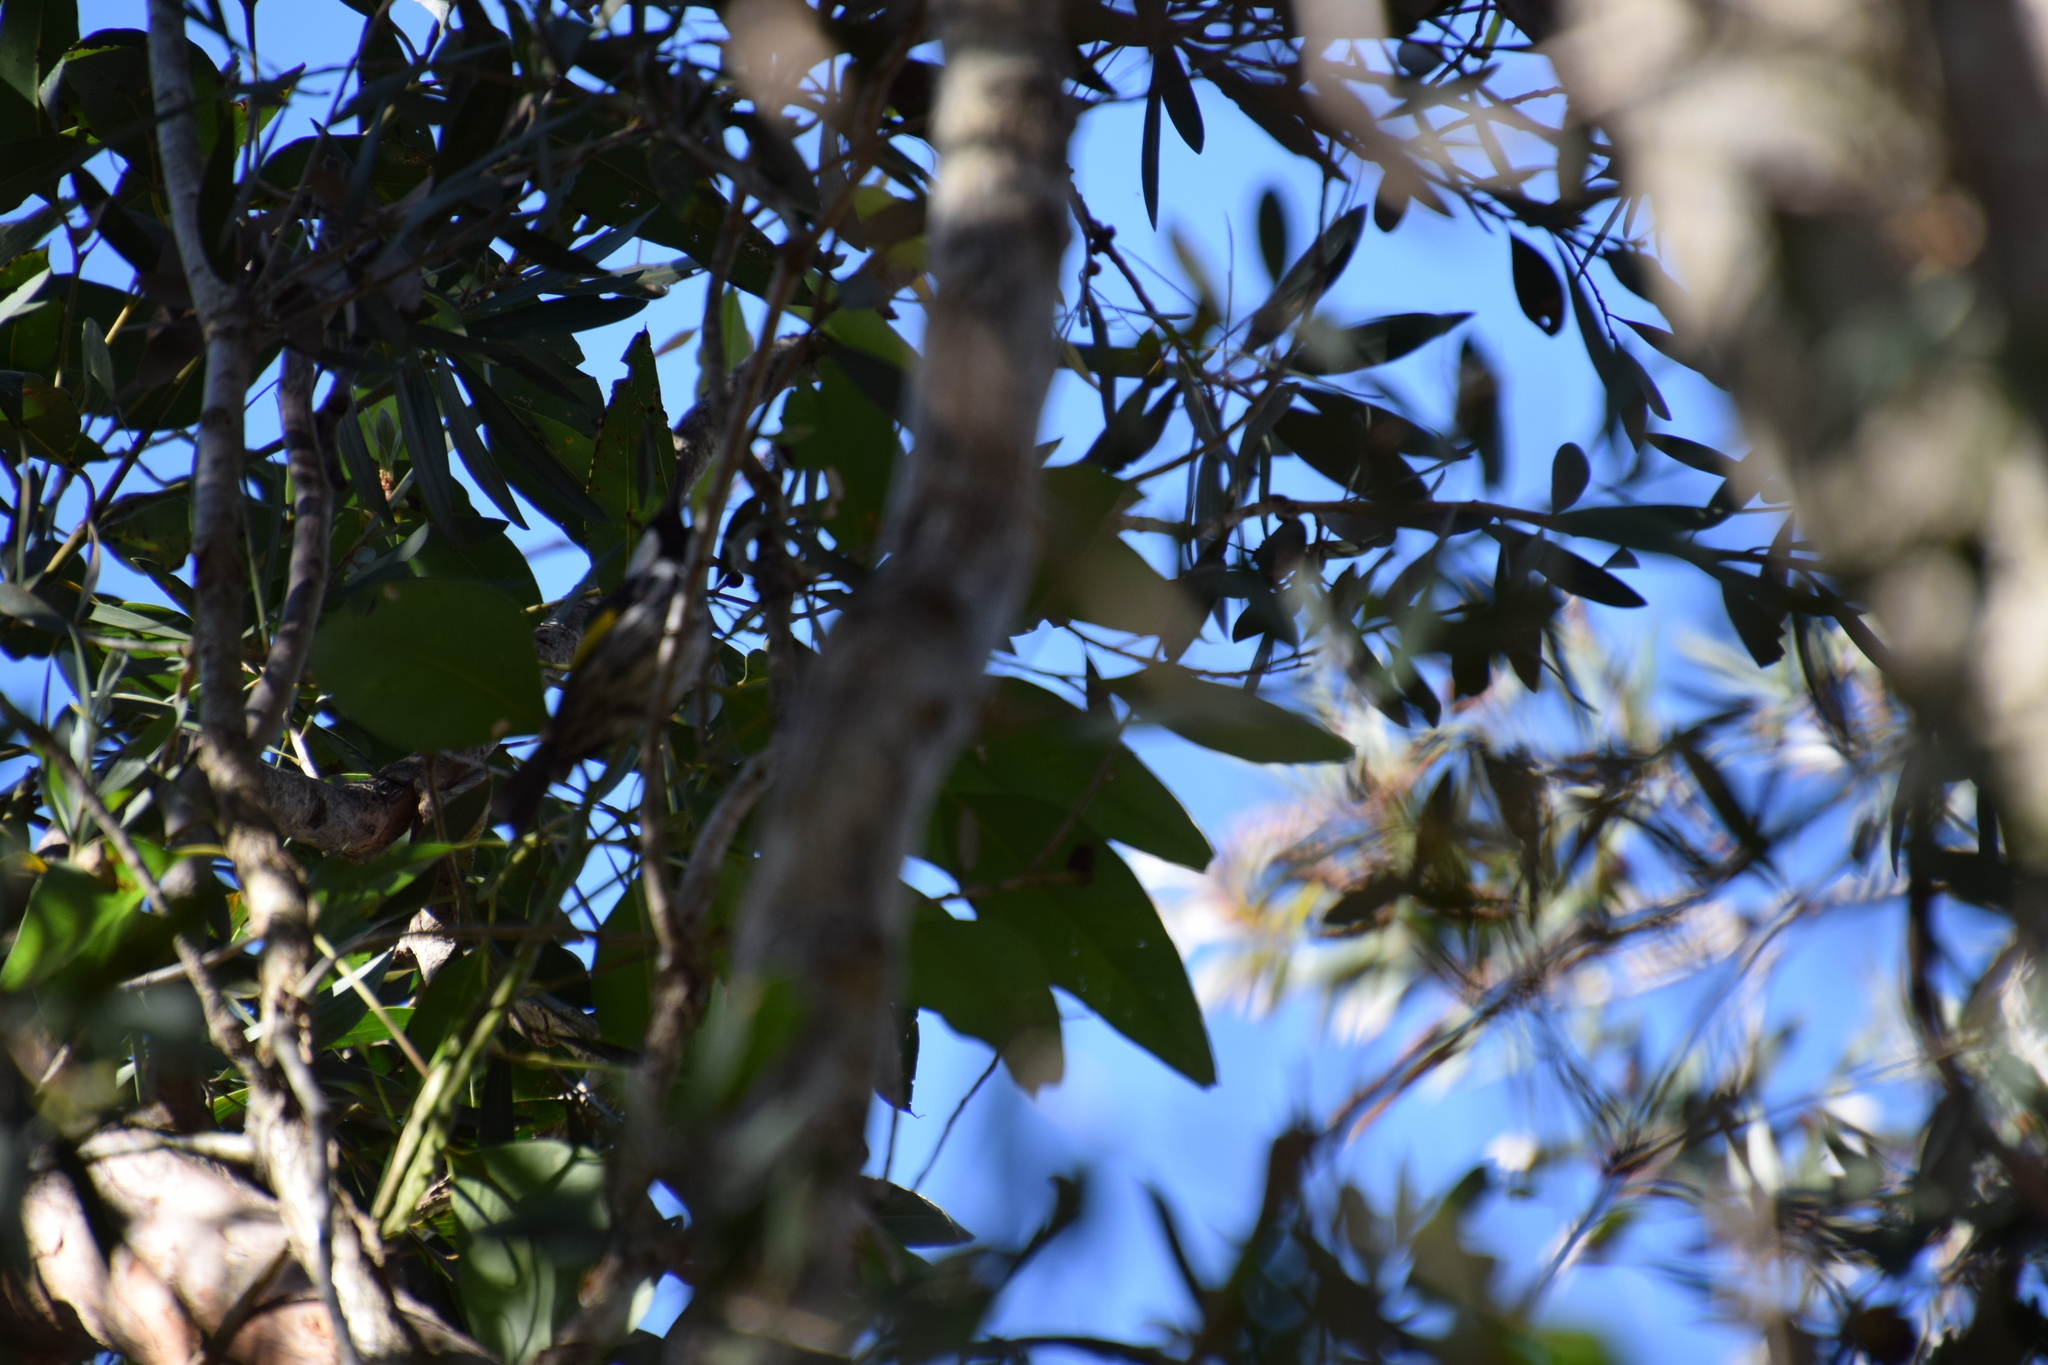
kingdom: Animalia
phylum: Chordata
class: Aves
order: Passeriformes
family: Meliphagidae
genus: Phylidonyris
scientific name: Phylidonyris niger
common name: White-cheeked honeyeater
